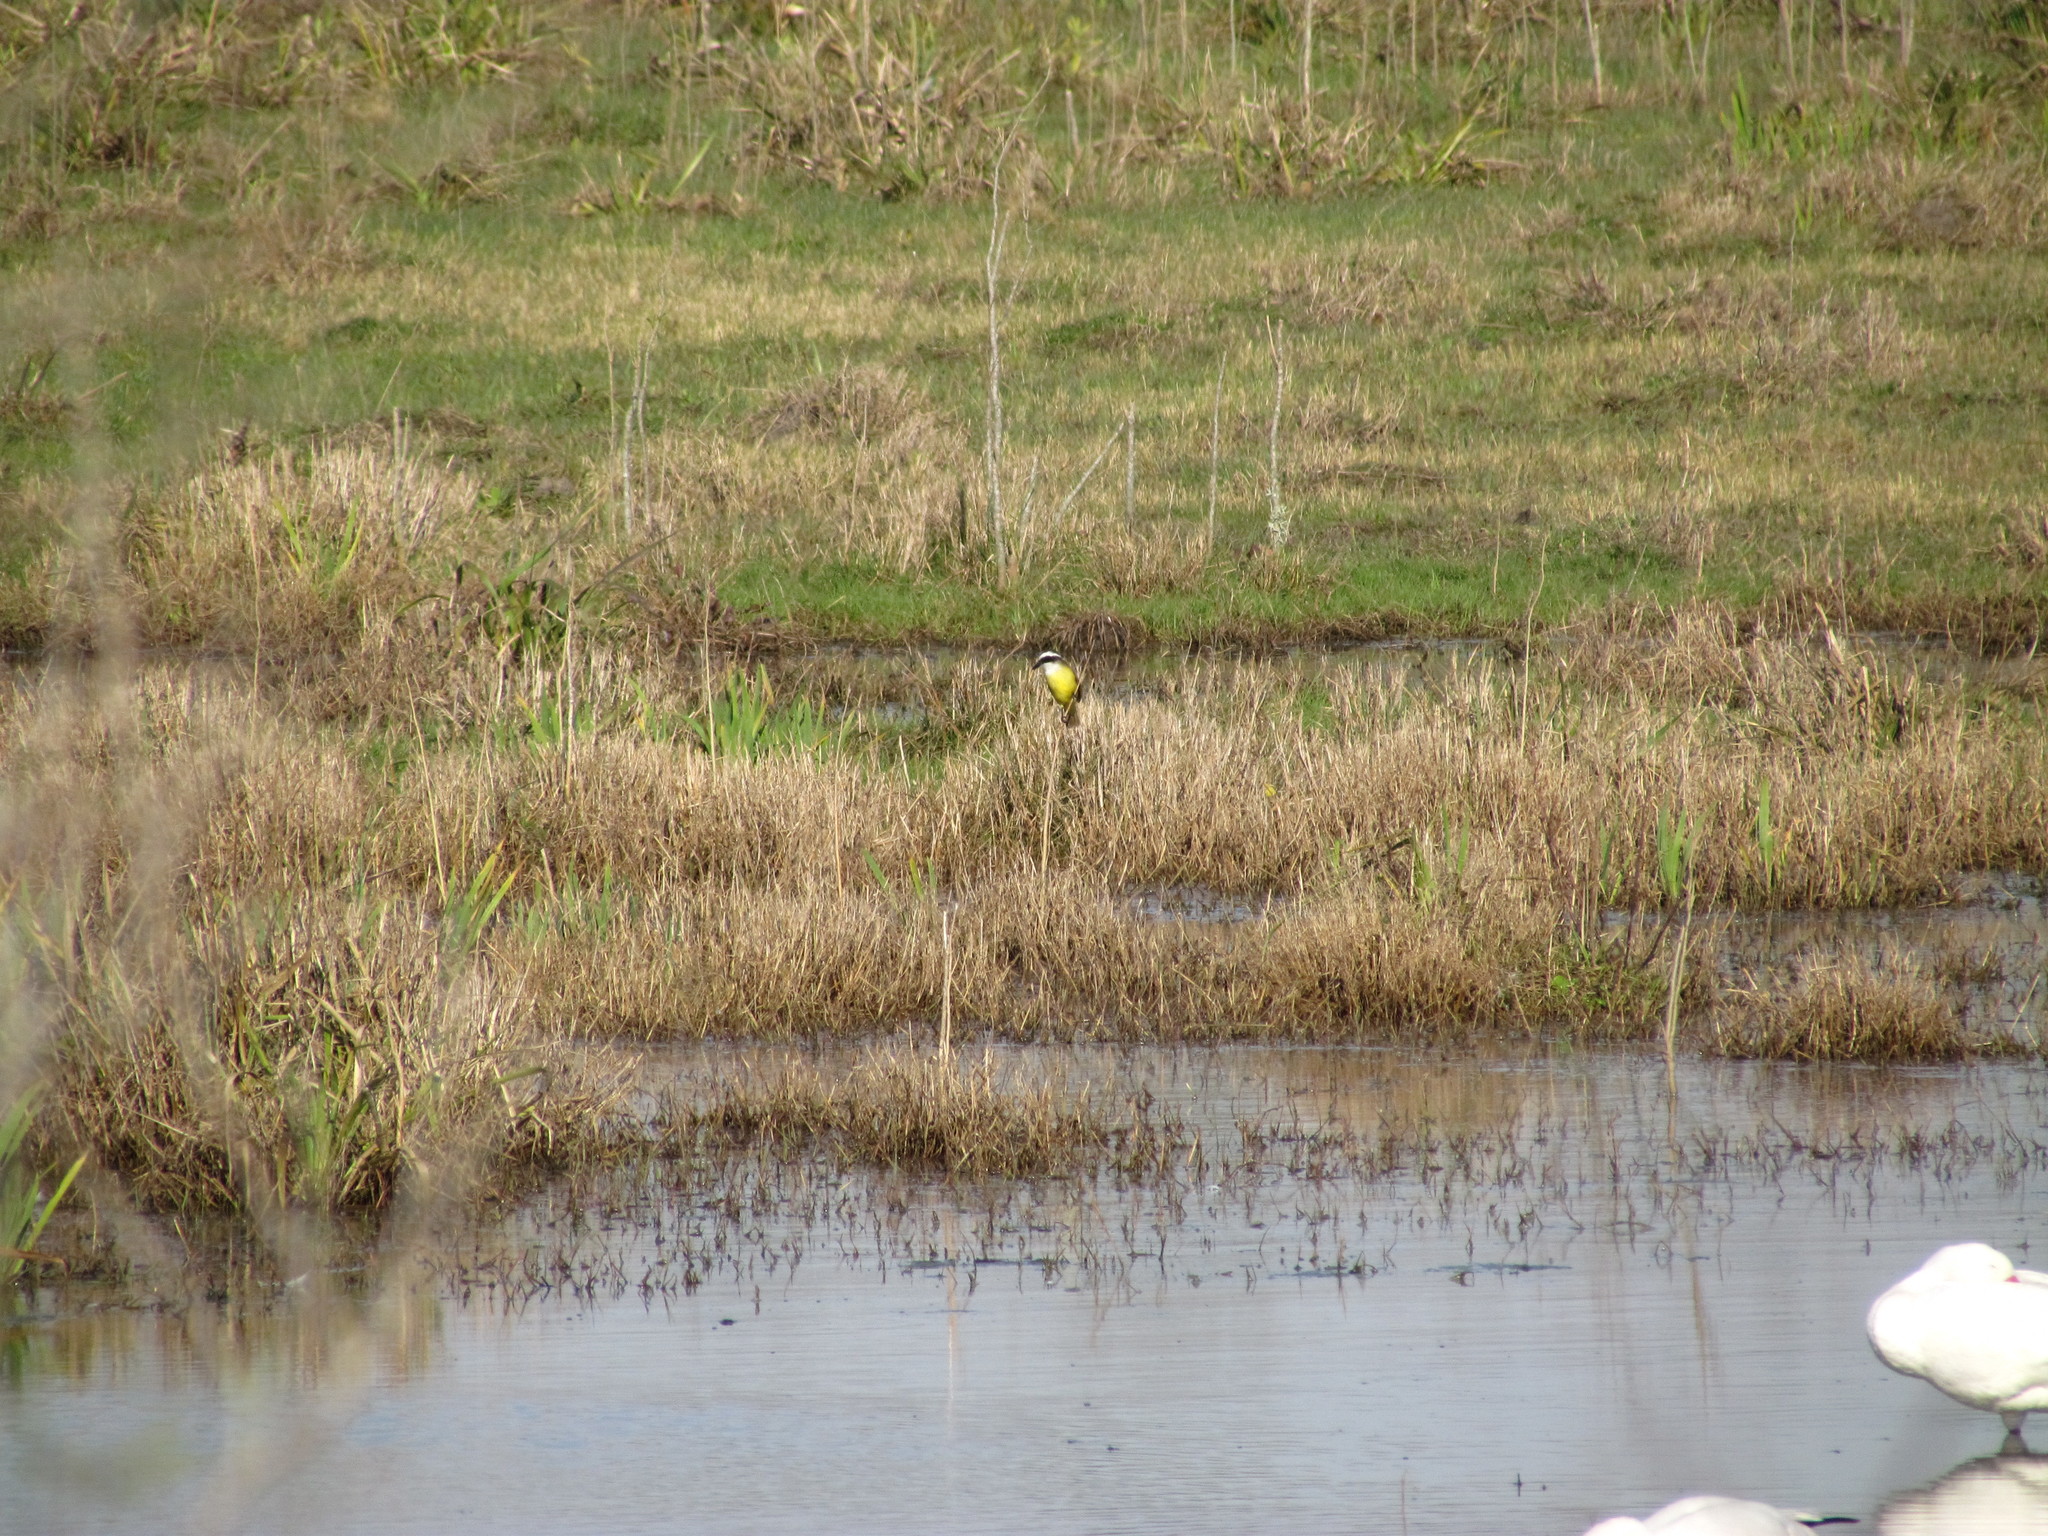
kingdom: Animalia
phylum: Chordata
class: Aves
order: Passeriformes
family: Tyrannidae
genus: Pitangus
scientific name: Pitangus sulphuratus
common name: Great kiskadee
